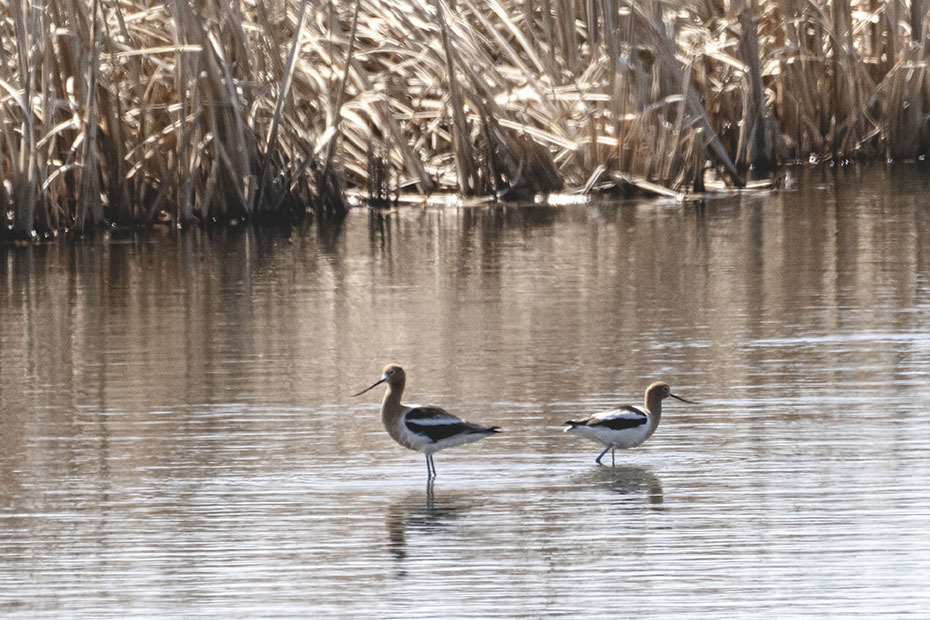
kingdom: Animalia
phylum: Chordata
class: Aves
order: Charadriiformes
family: Recurvirostridae
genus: Recurvirostra
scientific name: Recurvirostra americana
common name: American avocet
